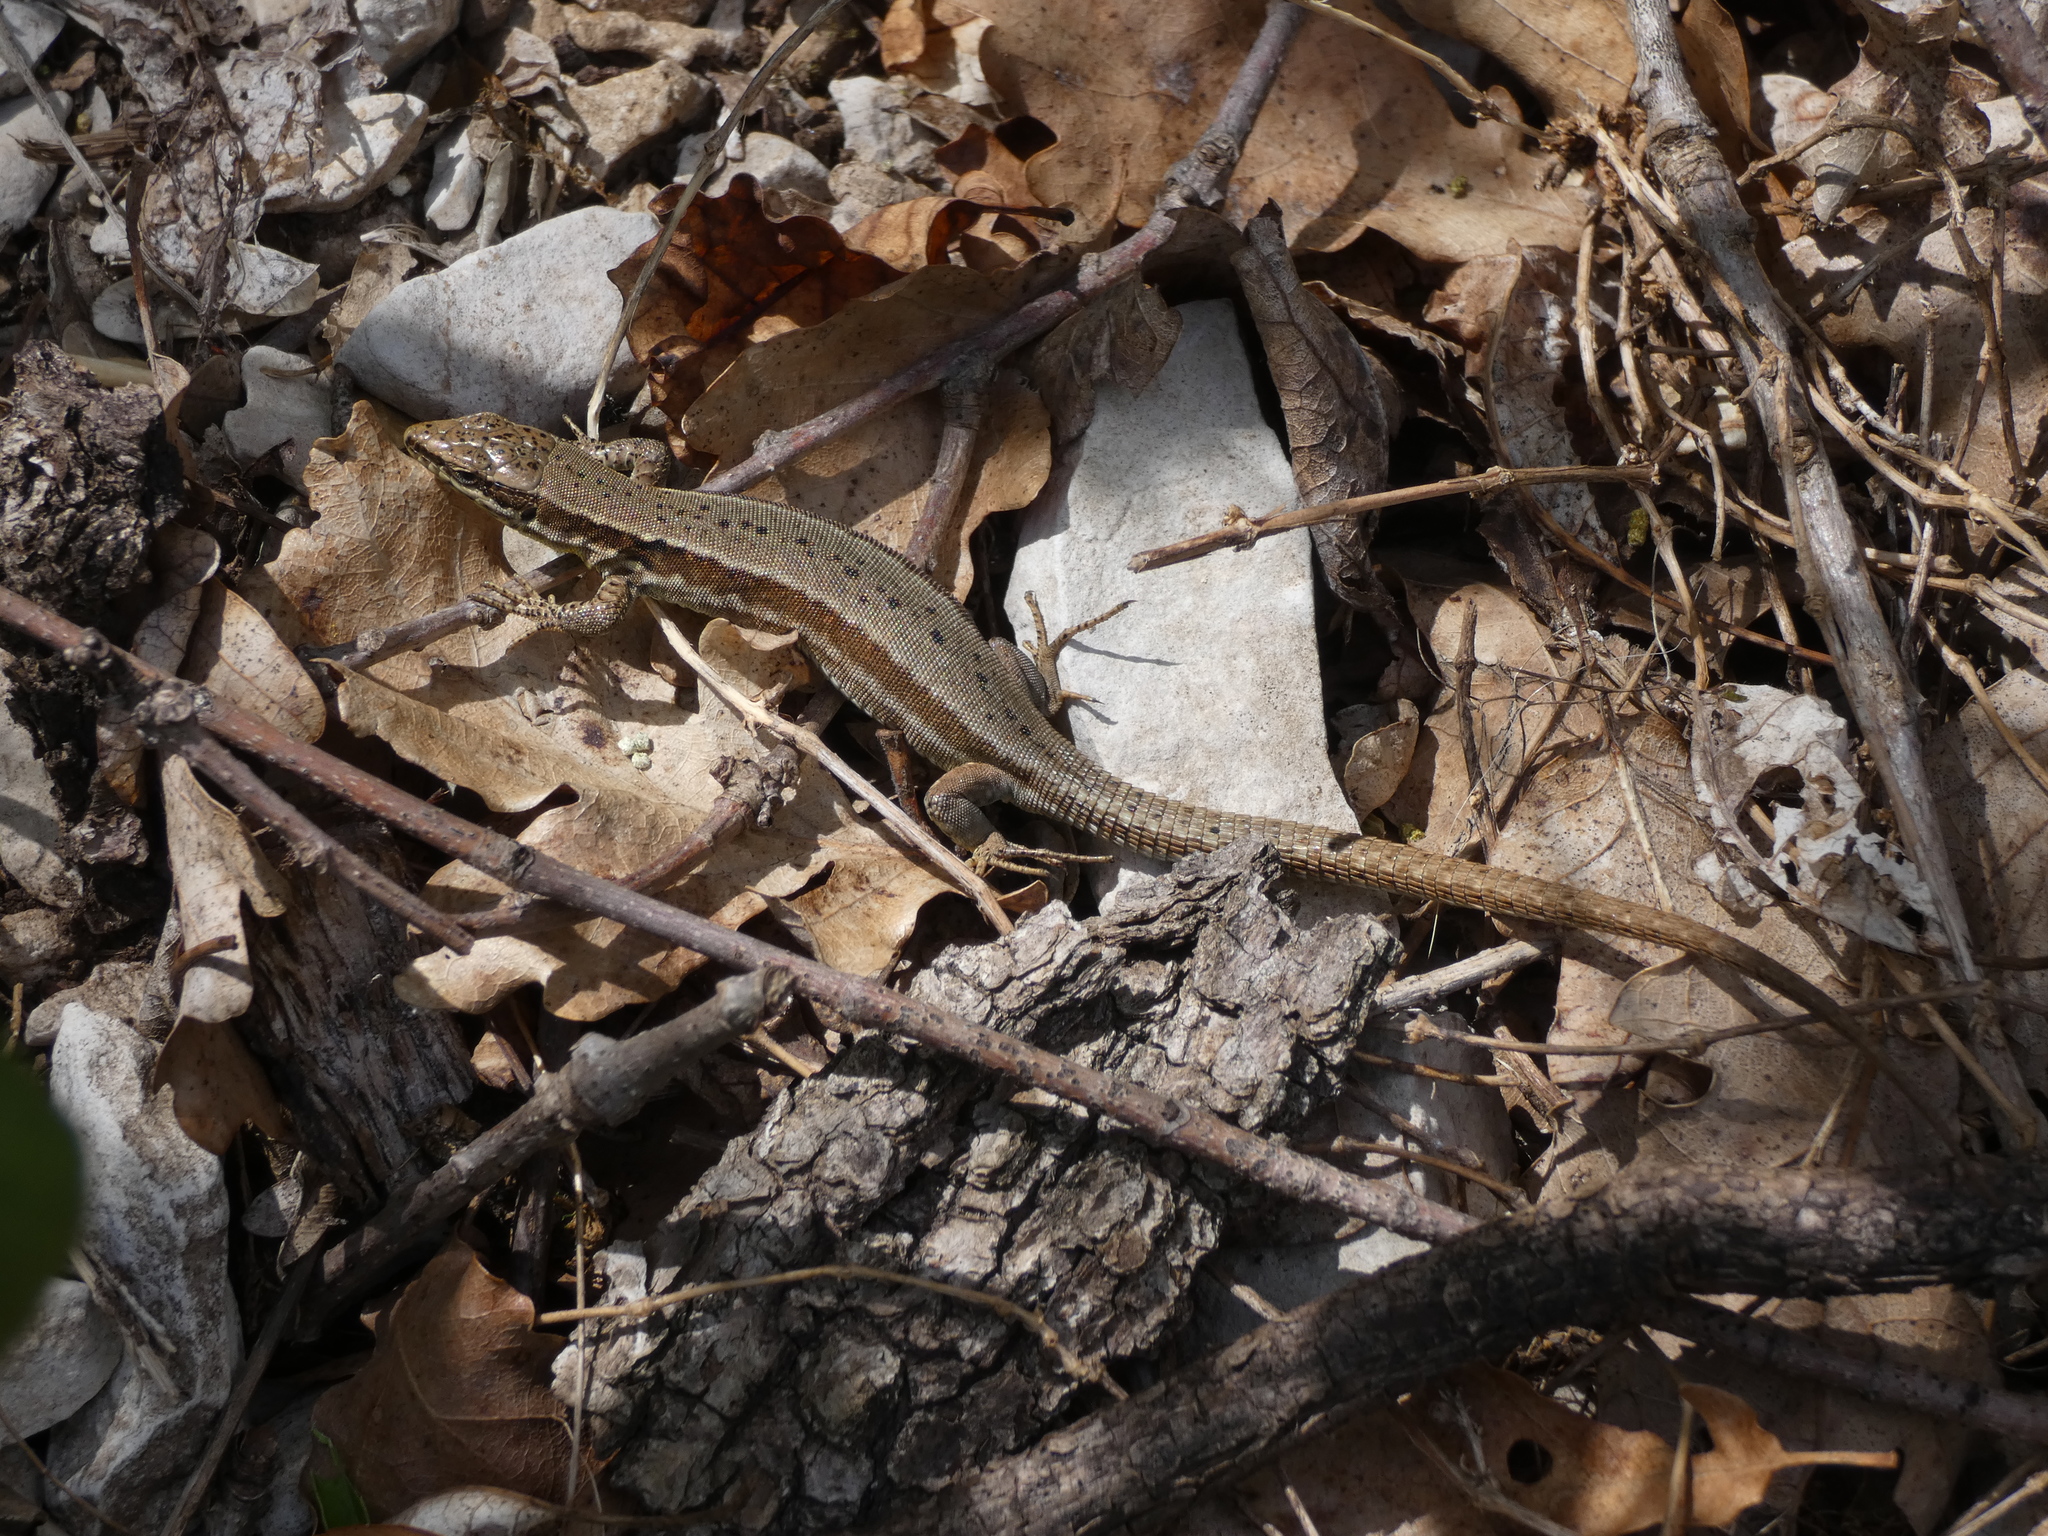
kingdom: Animalia
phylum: Chordata
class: Squamata
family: Lacertidae
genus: Podarcis
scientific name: Podarcis muralis
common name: Common wall lizard
